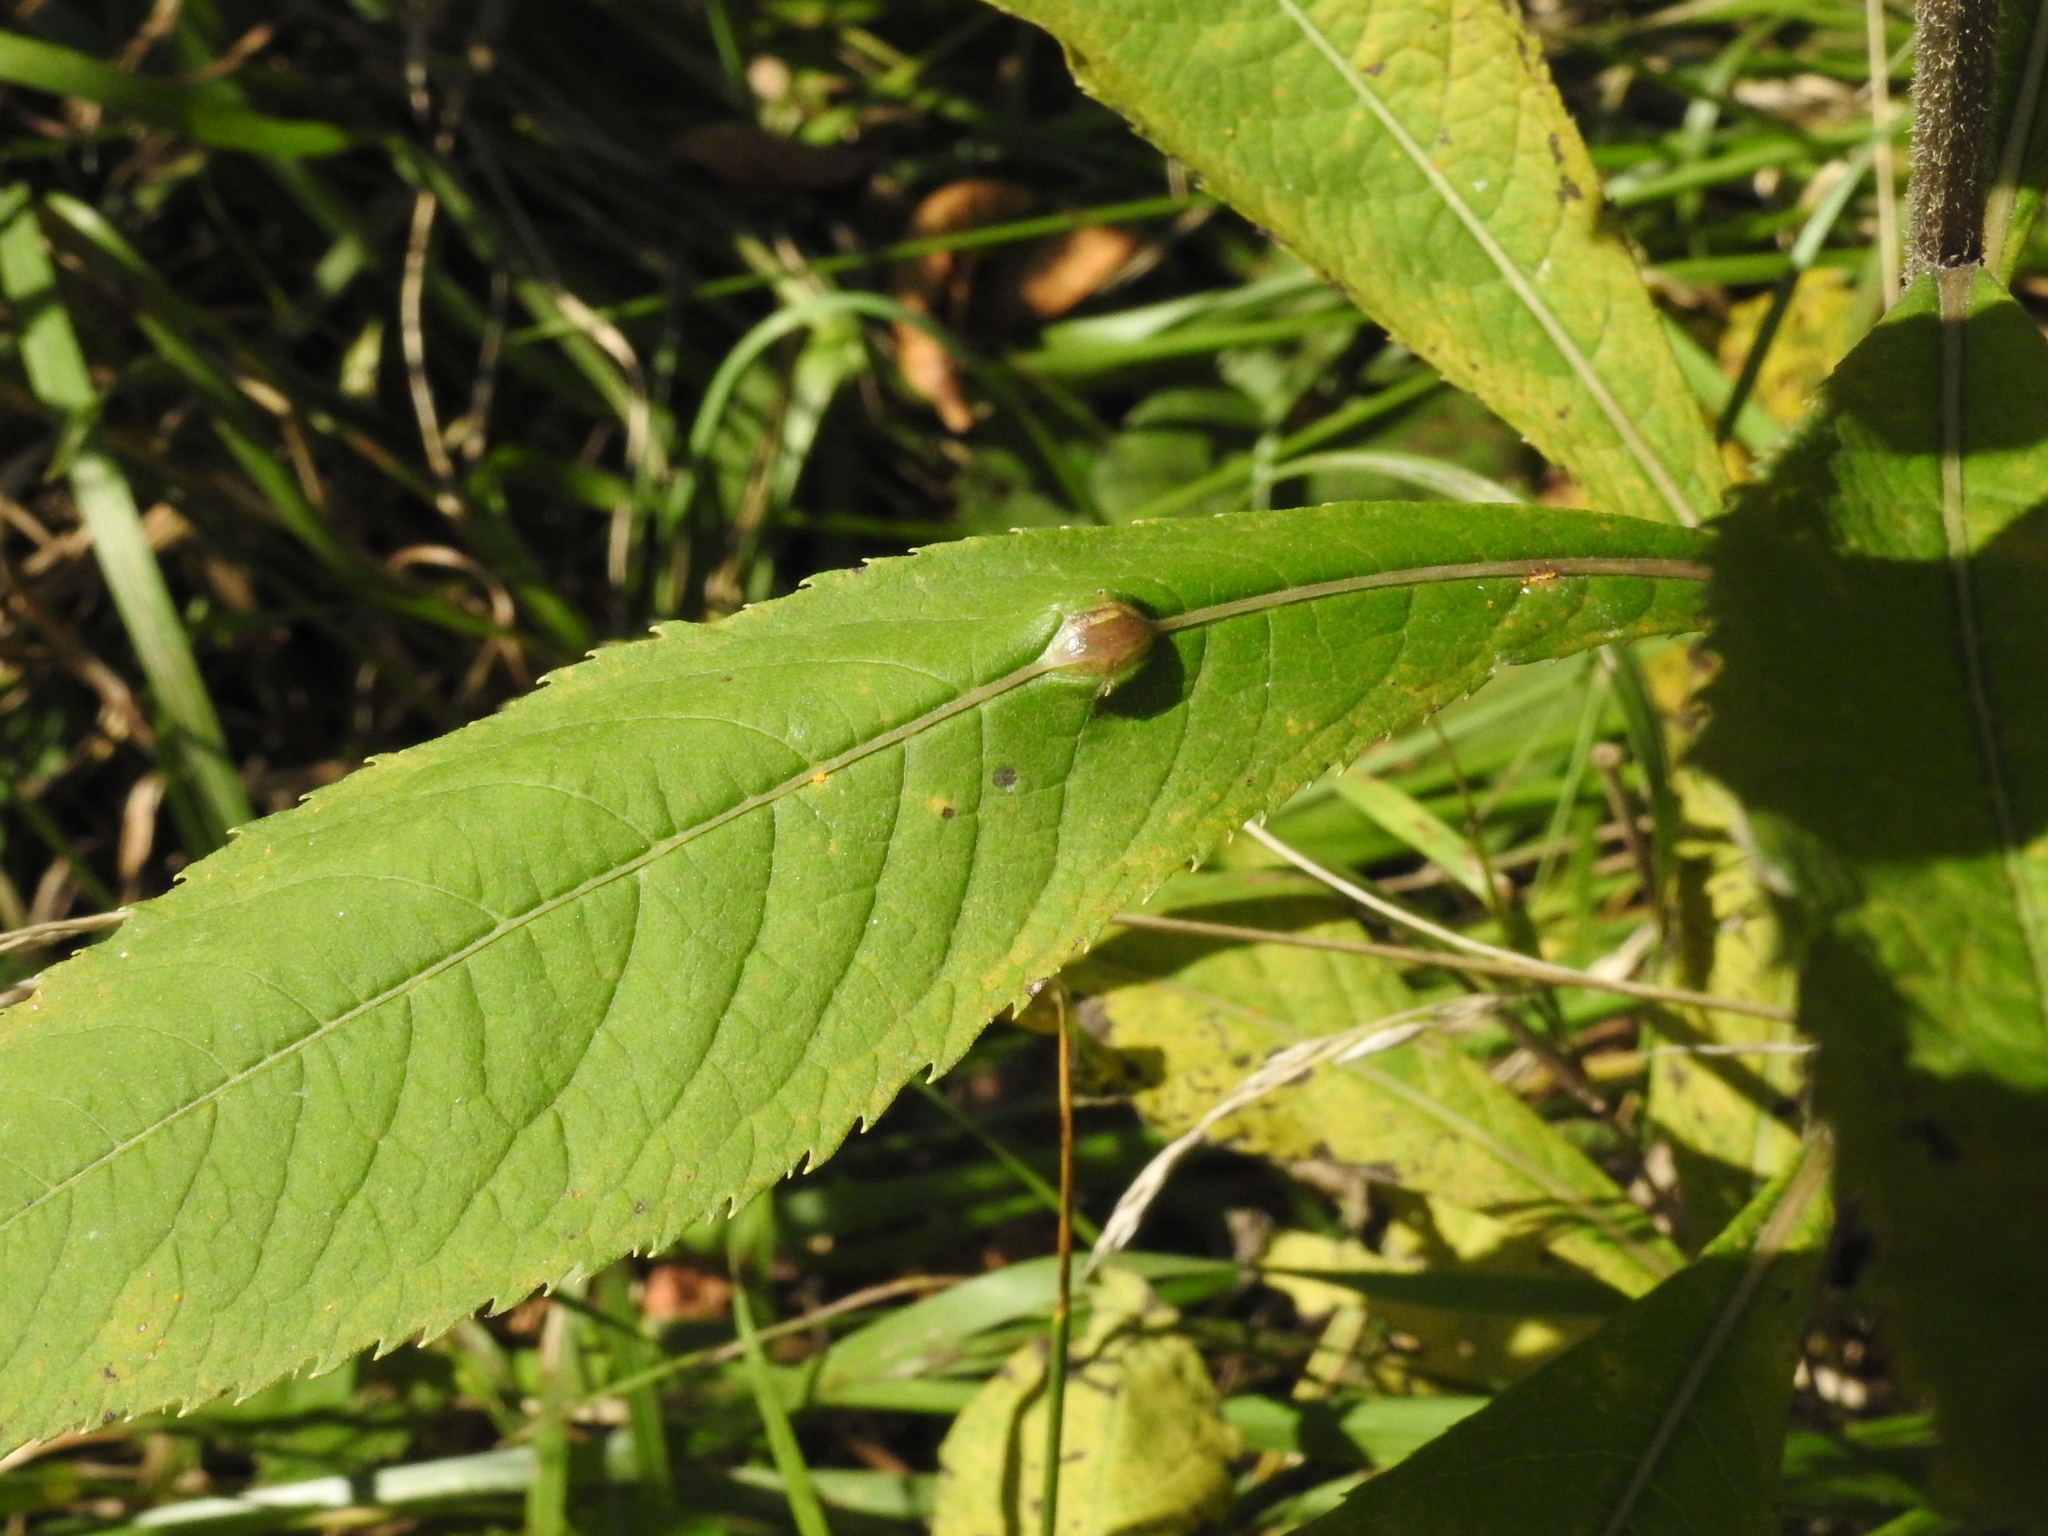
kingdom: Animalia
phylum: Arthropoda
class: Insecta
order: Diptera
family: Cecidomyiidae
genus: Neolasioptera
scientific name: Neolasioptera vernoniae
